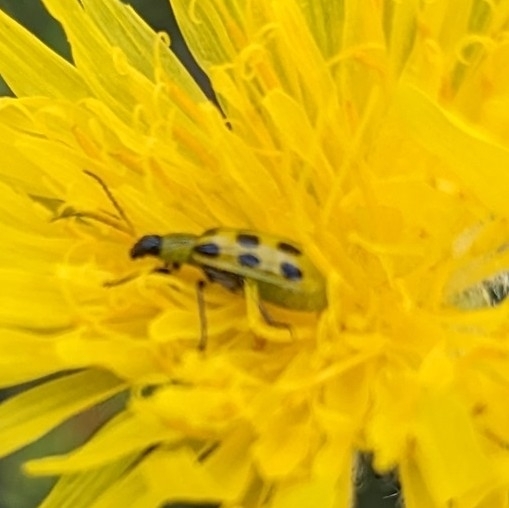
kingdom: Animalia
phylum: Arthropoda
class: Insecta
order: Coleoptera
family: Chrysomelidae
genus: Diabrotica
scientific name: Diabrotica undecimpunctata
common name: Spotted cucumber beetle
